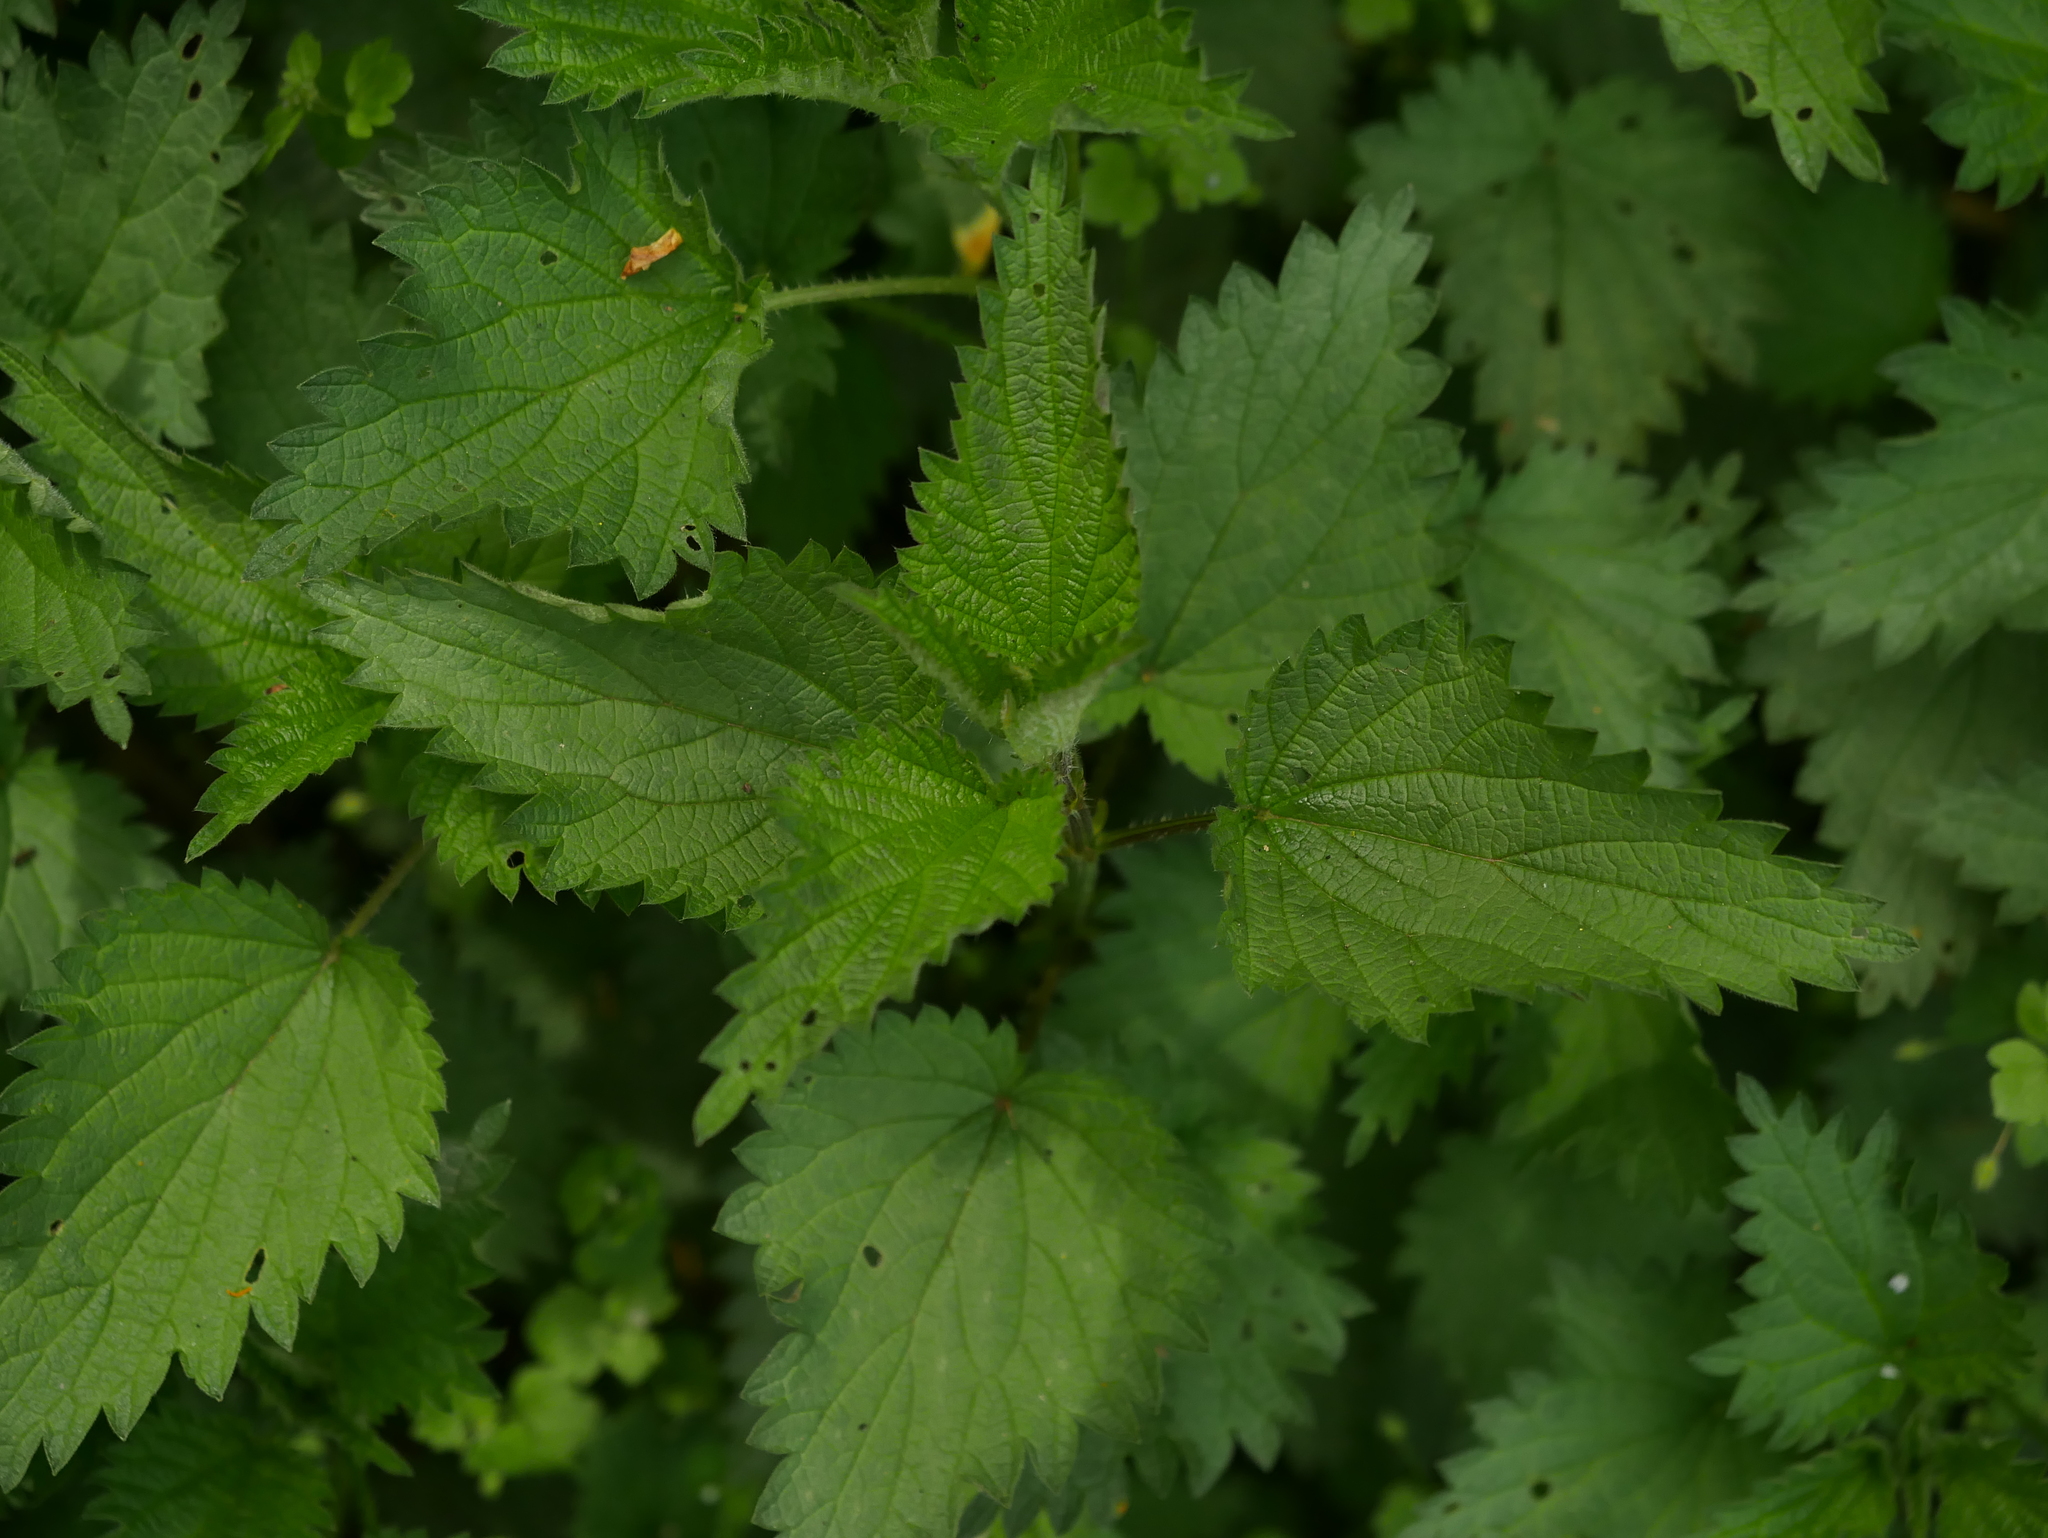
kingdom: Plantae
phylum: Tracheophyta
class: Magnoliopsida
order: Rosales
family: Urticaceae
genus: Urtica
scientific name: Urtica dioica
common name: Common nettle
